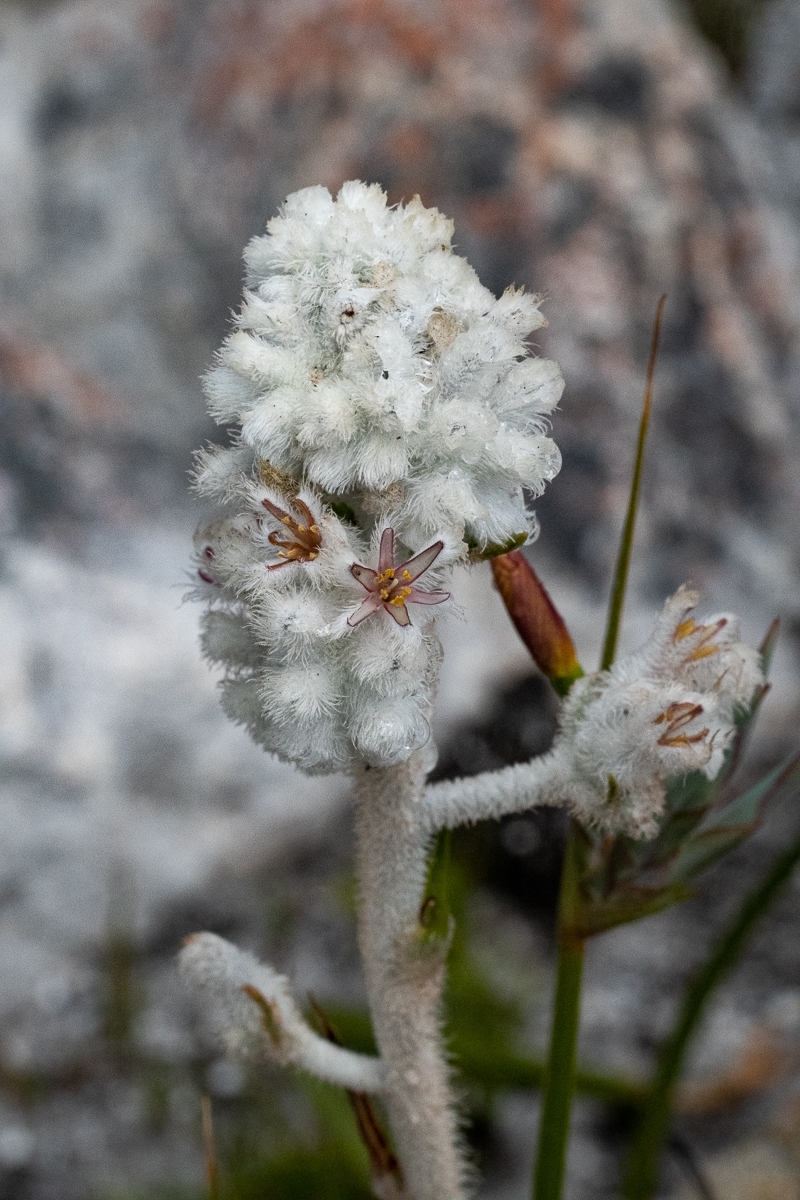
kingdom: Plantae
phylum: Tracheophyta
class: Liliopsida
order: Asparagales
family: Lanariaceae
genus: Lanaria
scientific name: Lanaria lanata
